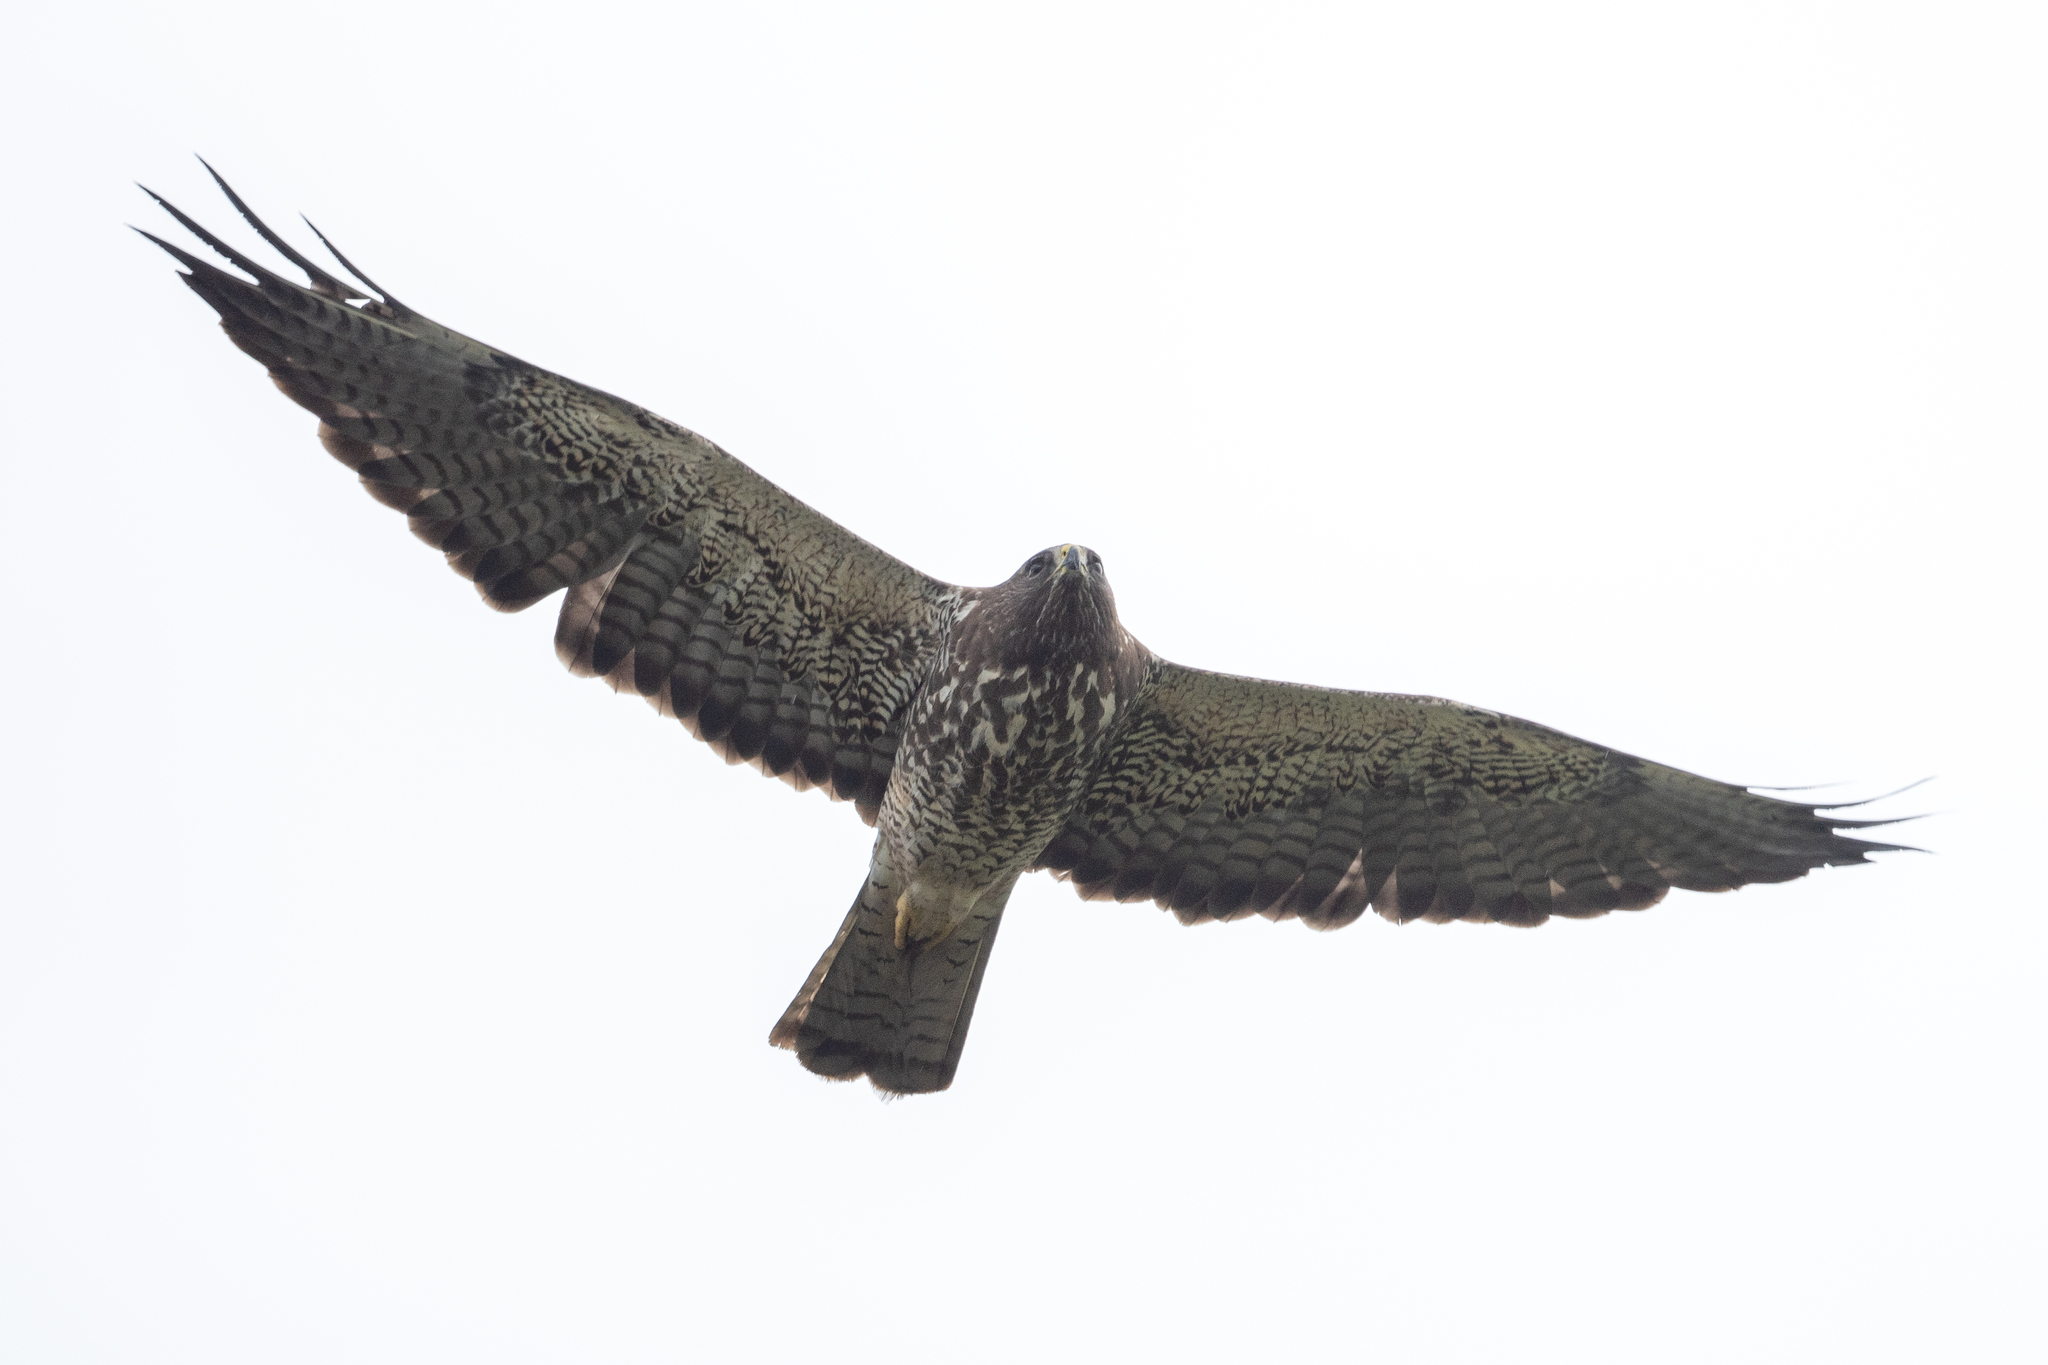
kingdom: Animalia
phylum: Chordata
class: Aves
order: Accipitriformes
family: Accipitridae
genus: Buteo
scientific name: Buteo swainsoni
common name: Swainson's hawk
